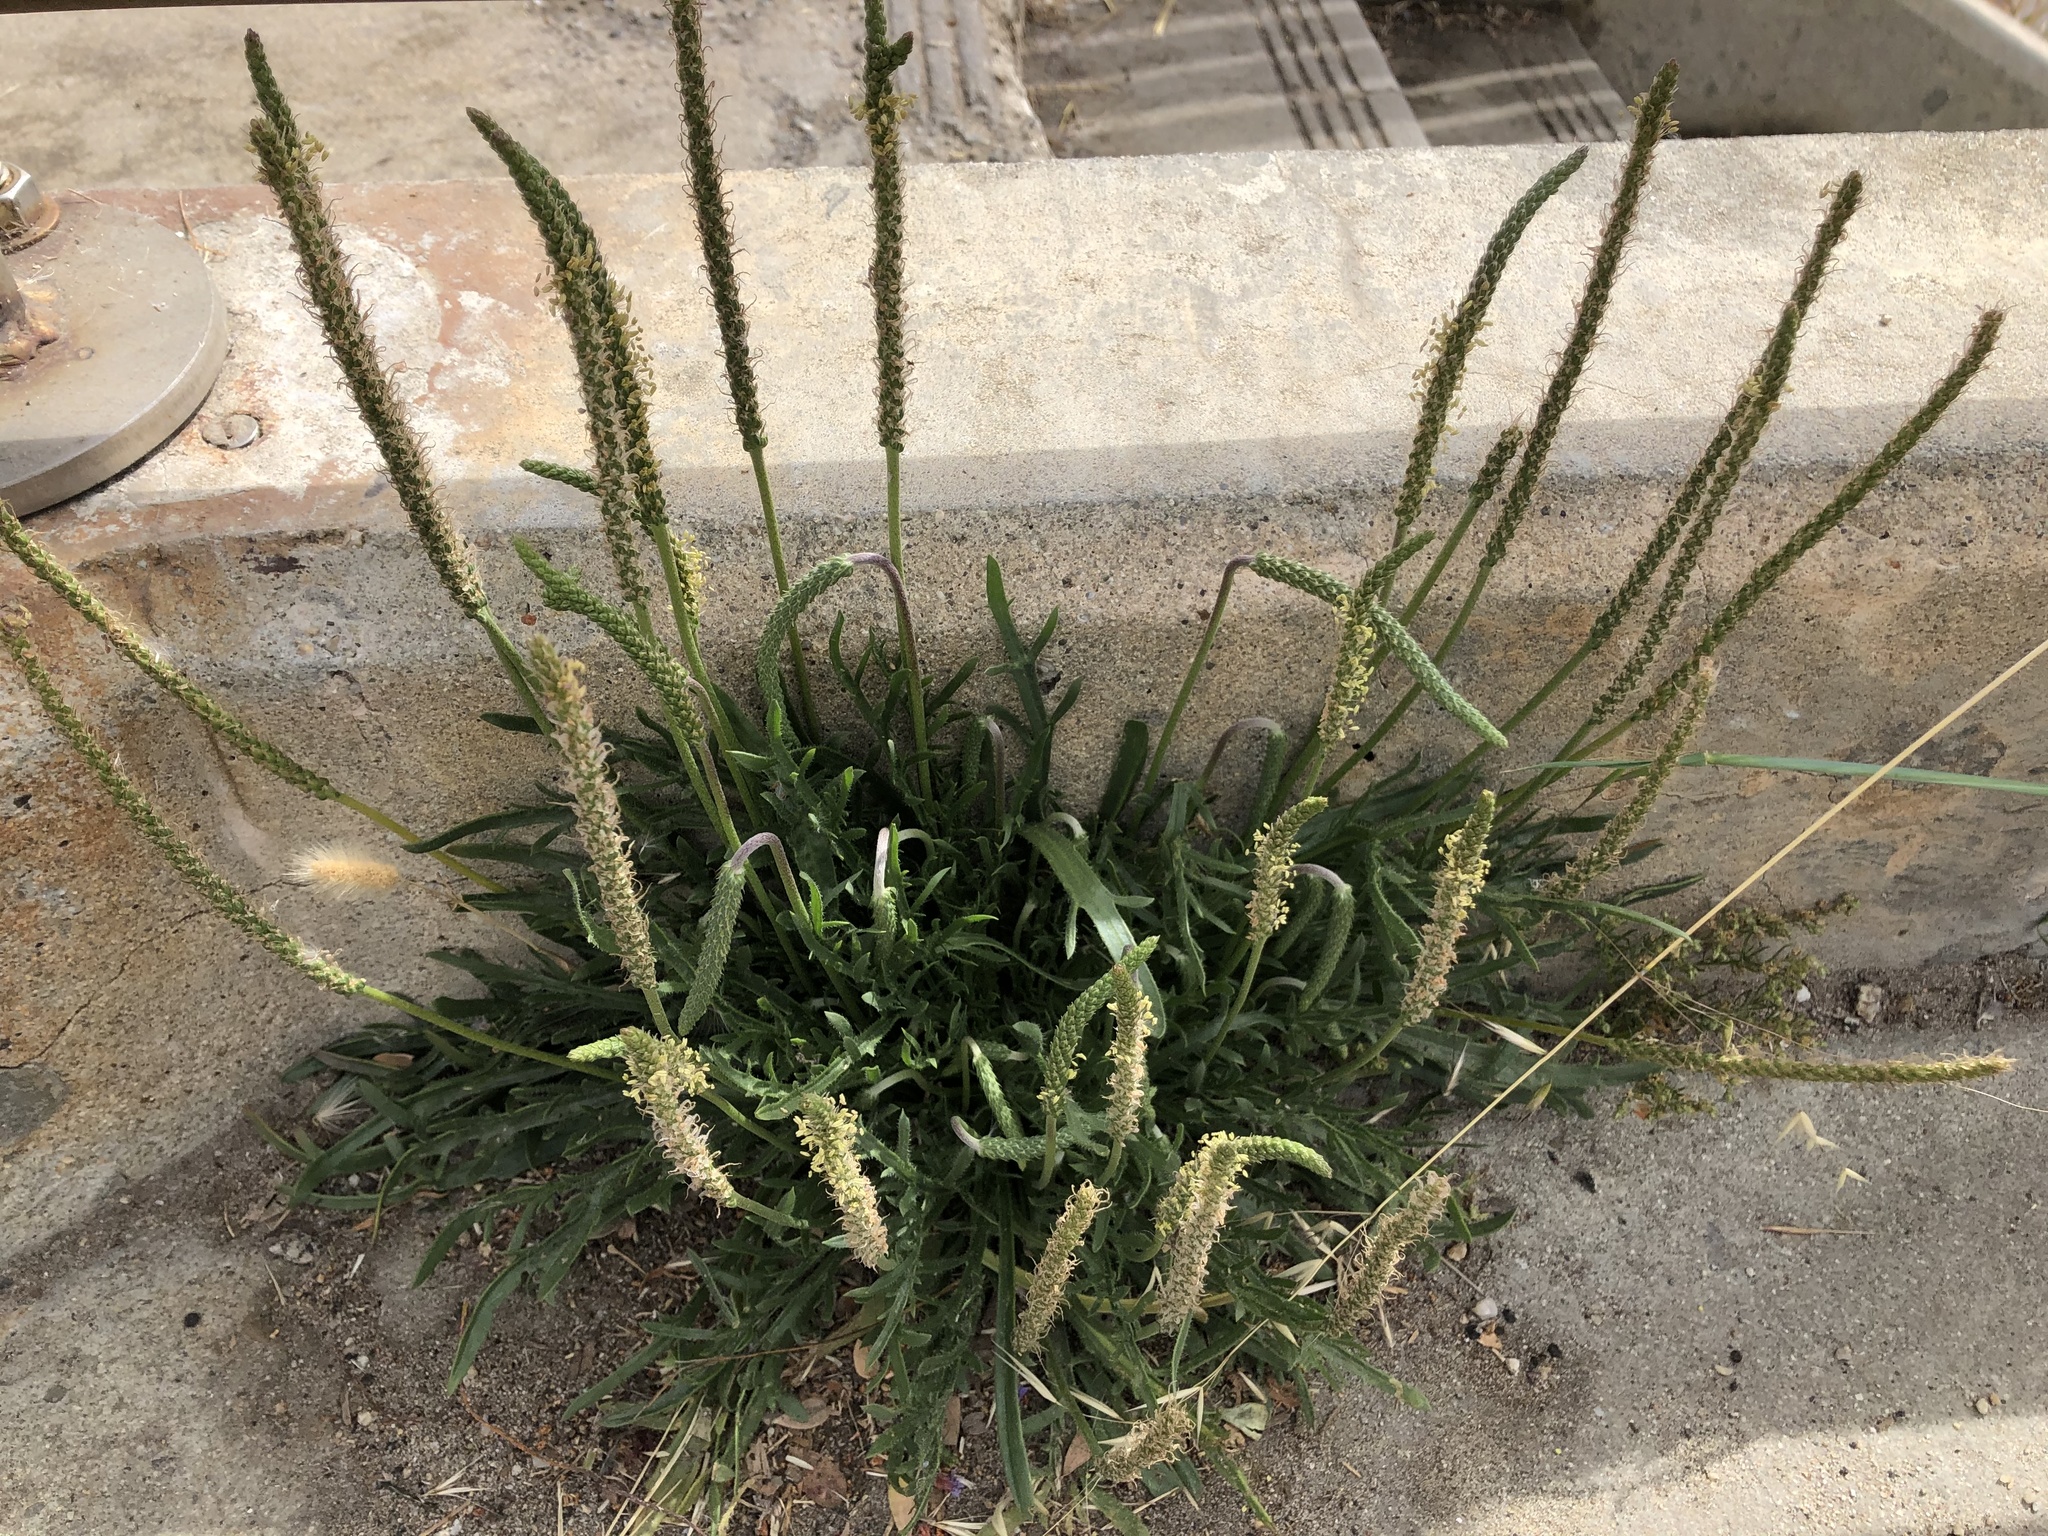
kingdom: Plantae
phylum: Tracheophyta
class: Magnoliopsida
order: Lamiales
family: Plantaginaceae
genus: Plantago
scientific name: Plantago coronopus
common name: Buck's-horn plantain
